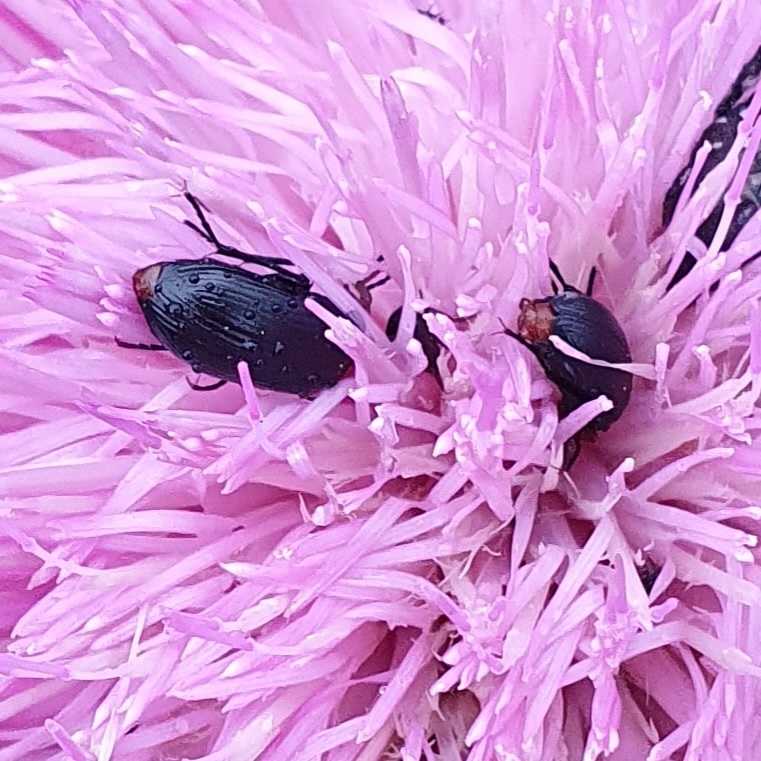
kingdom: Animalia
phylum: Arthropoda
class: Insecta
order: Coleoptera
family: Tenebrionidae
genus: Heliotaurus
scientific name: Heliotaurus ruficollis
